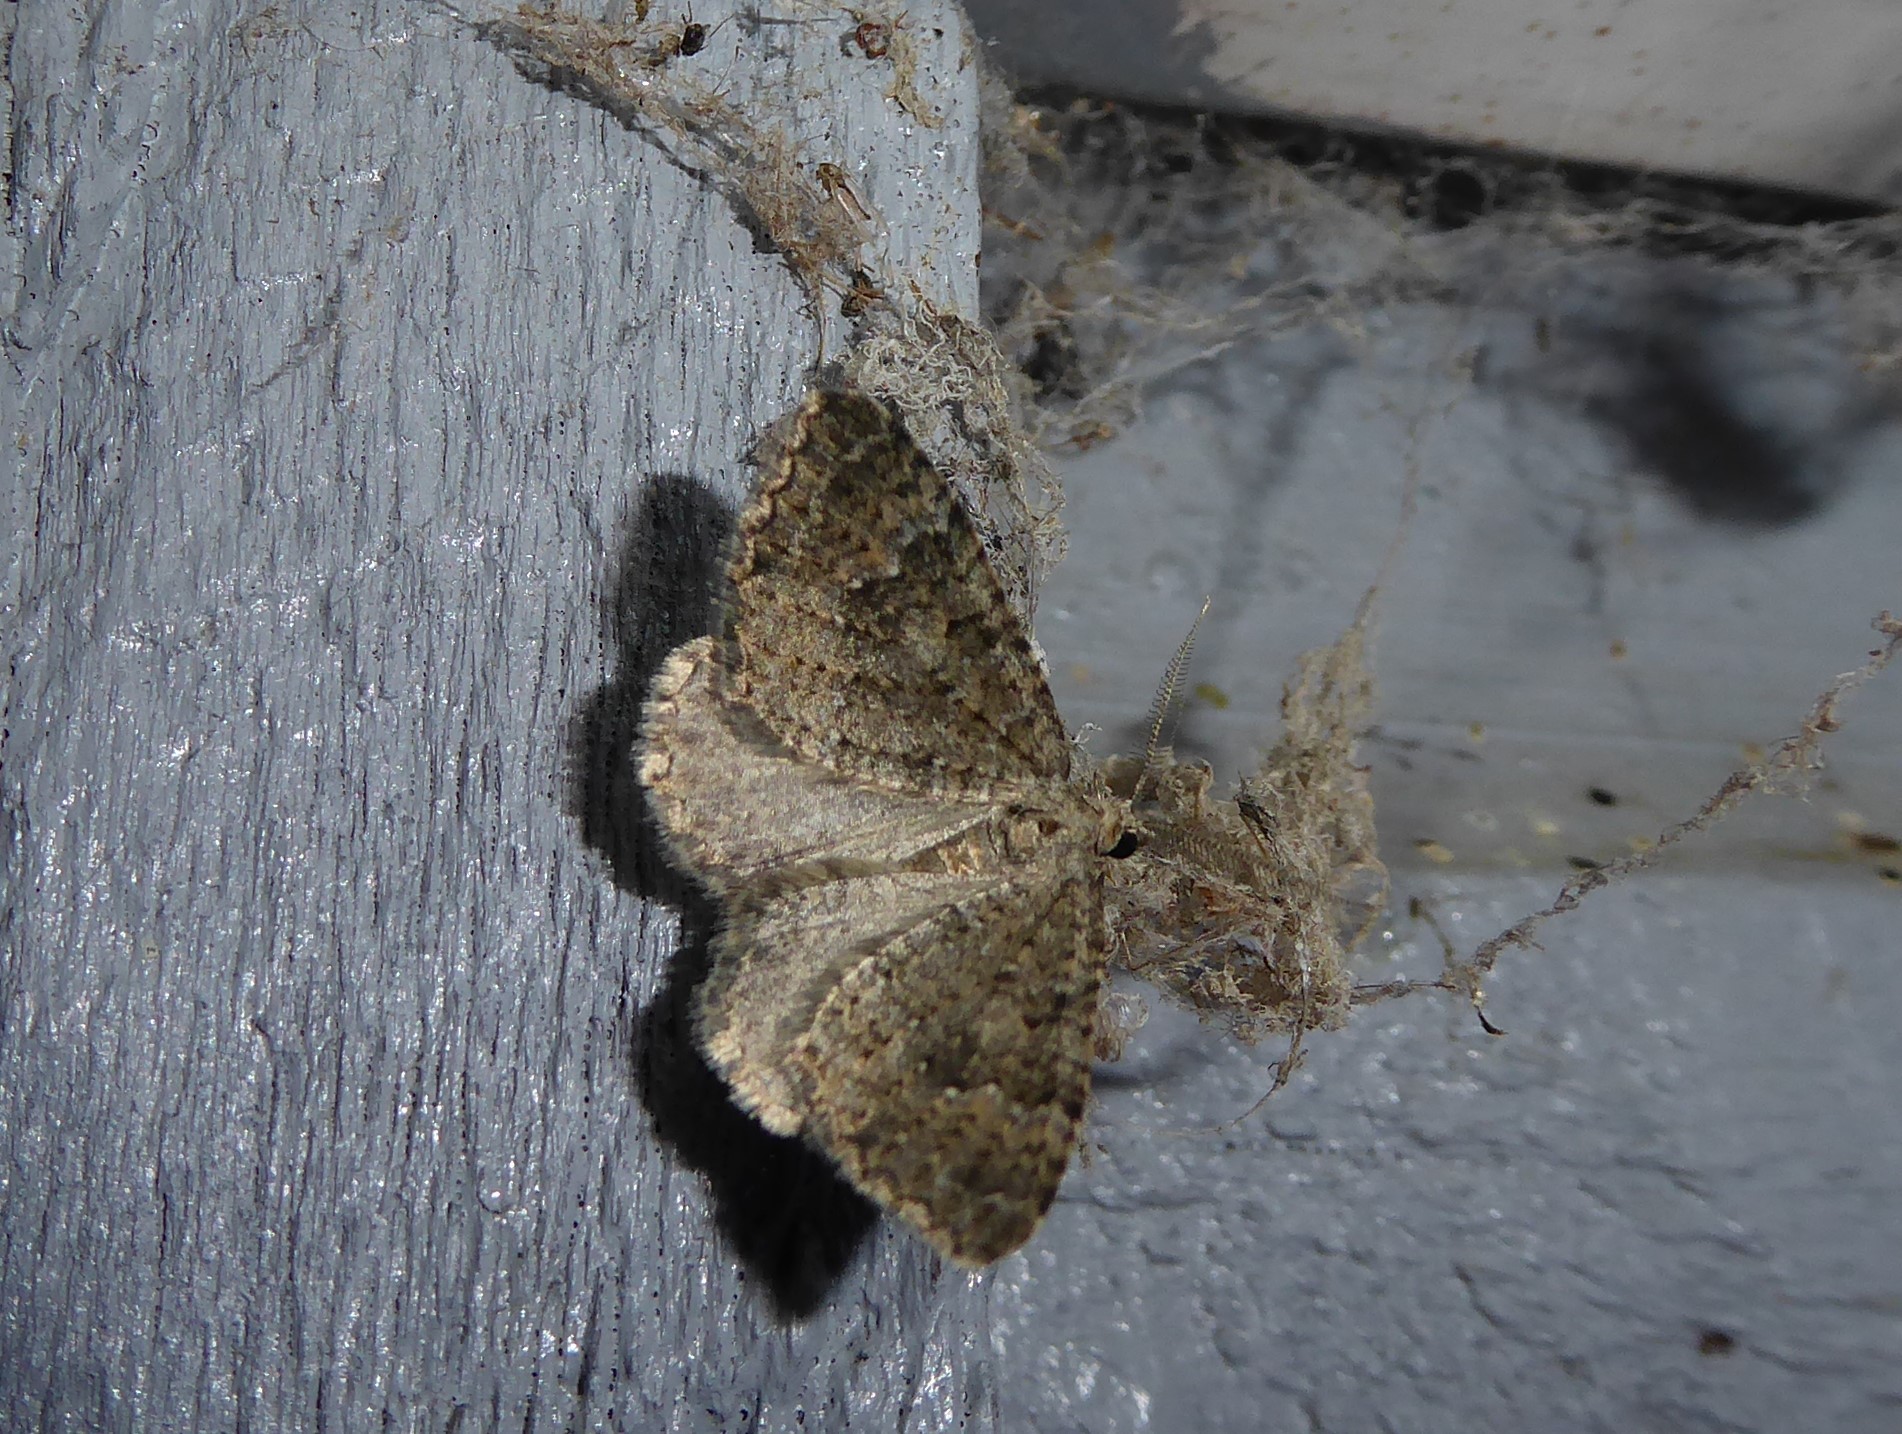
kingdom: Animalia
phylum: Arthropoda
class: Insecta
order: Lepidoptera
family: Geometridae
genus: Helastia
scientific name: Helastia corcularia
